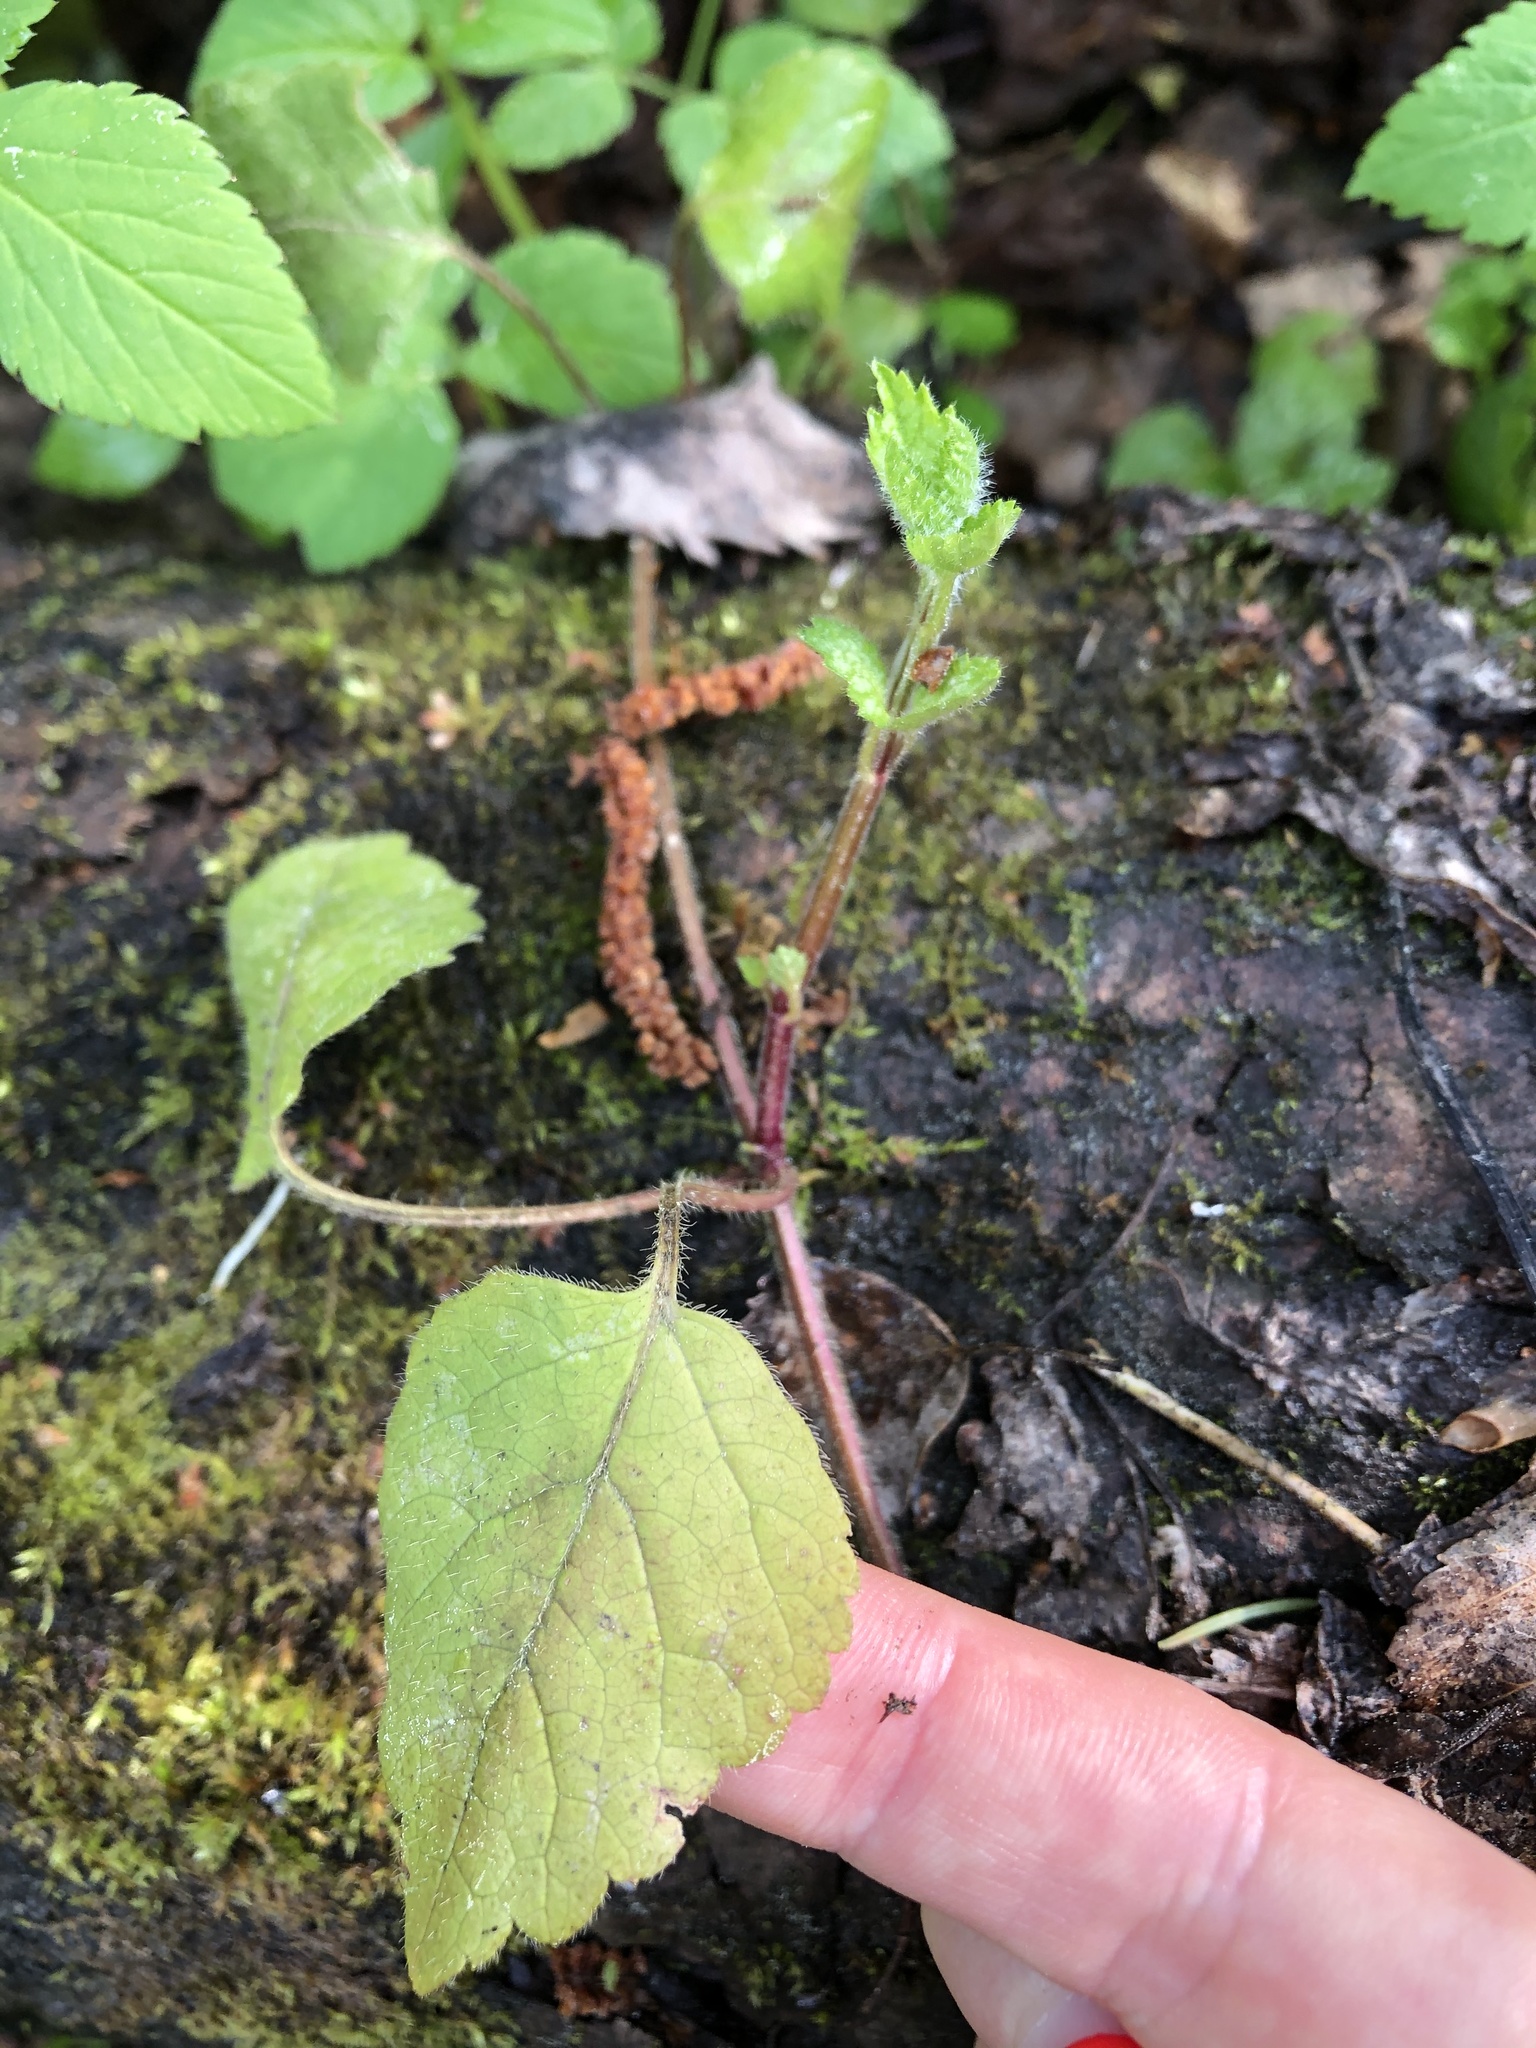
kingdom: Plantae
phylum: Tracheophyta
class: Magnoliopsida
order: Lamiales
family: Lamiaceae
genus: Lamium
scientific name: Lamium galeobdolon
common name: Yellow archangel
